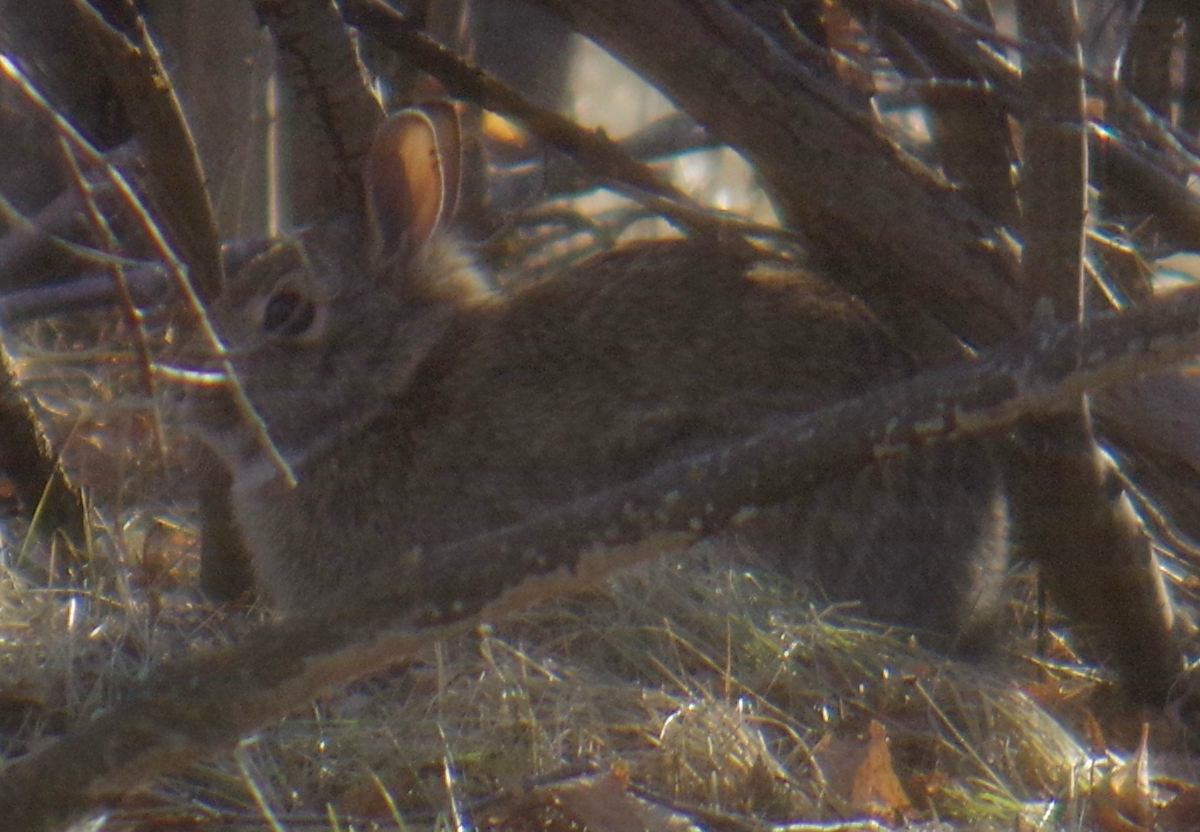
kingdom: Animalia
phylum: Chordata
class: Mammalia
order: Lagomorpha
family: Leporidae
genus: Sylvilagus
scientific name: Sylvilagus floridanus
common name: Eastern cottontail
